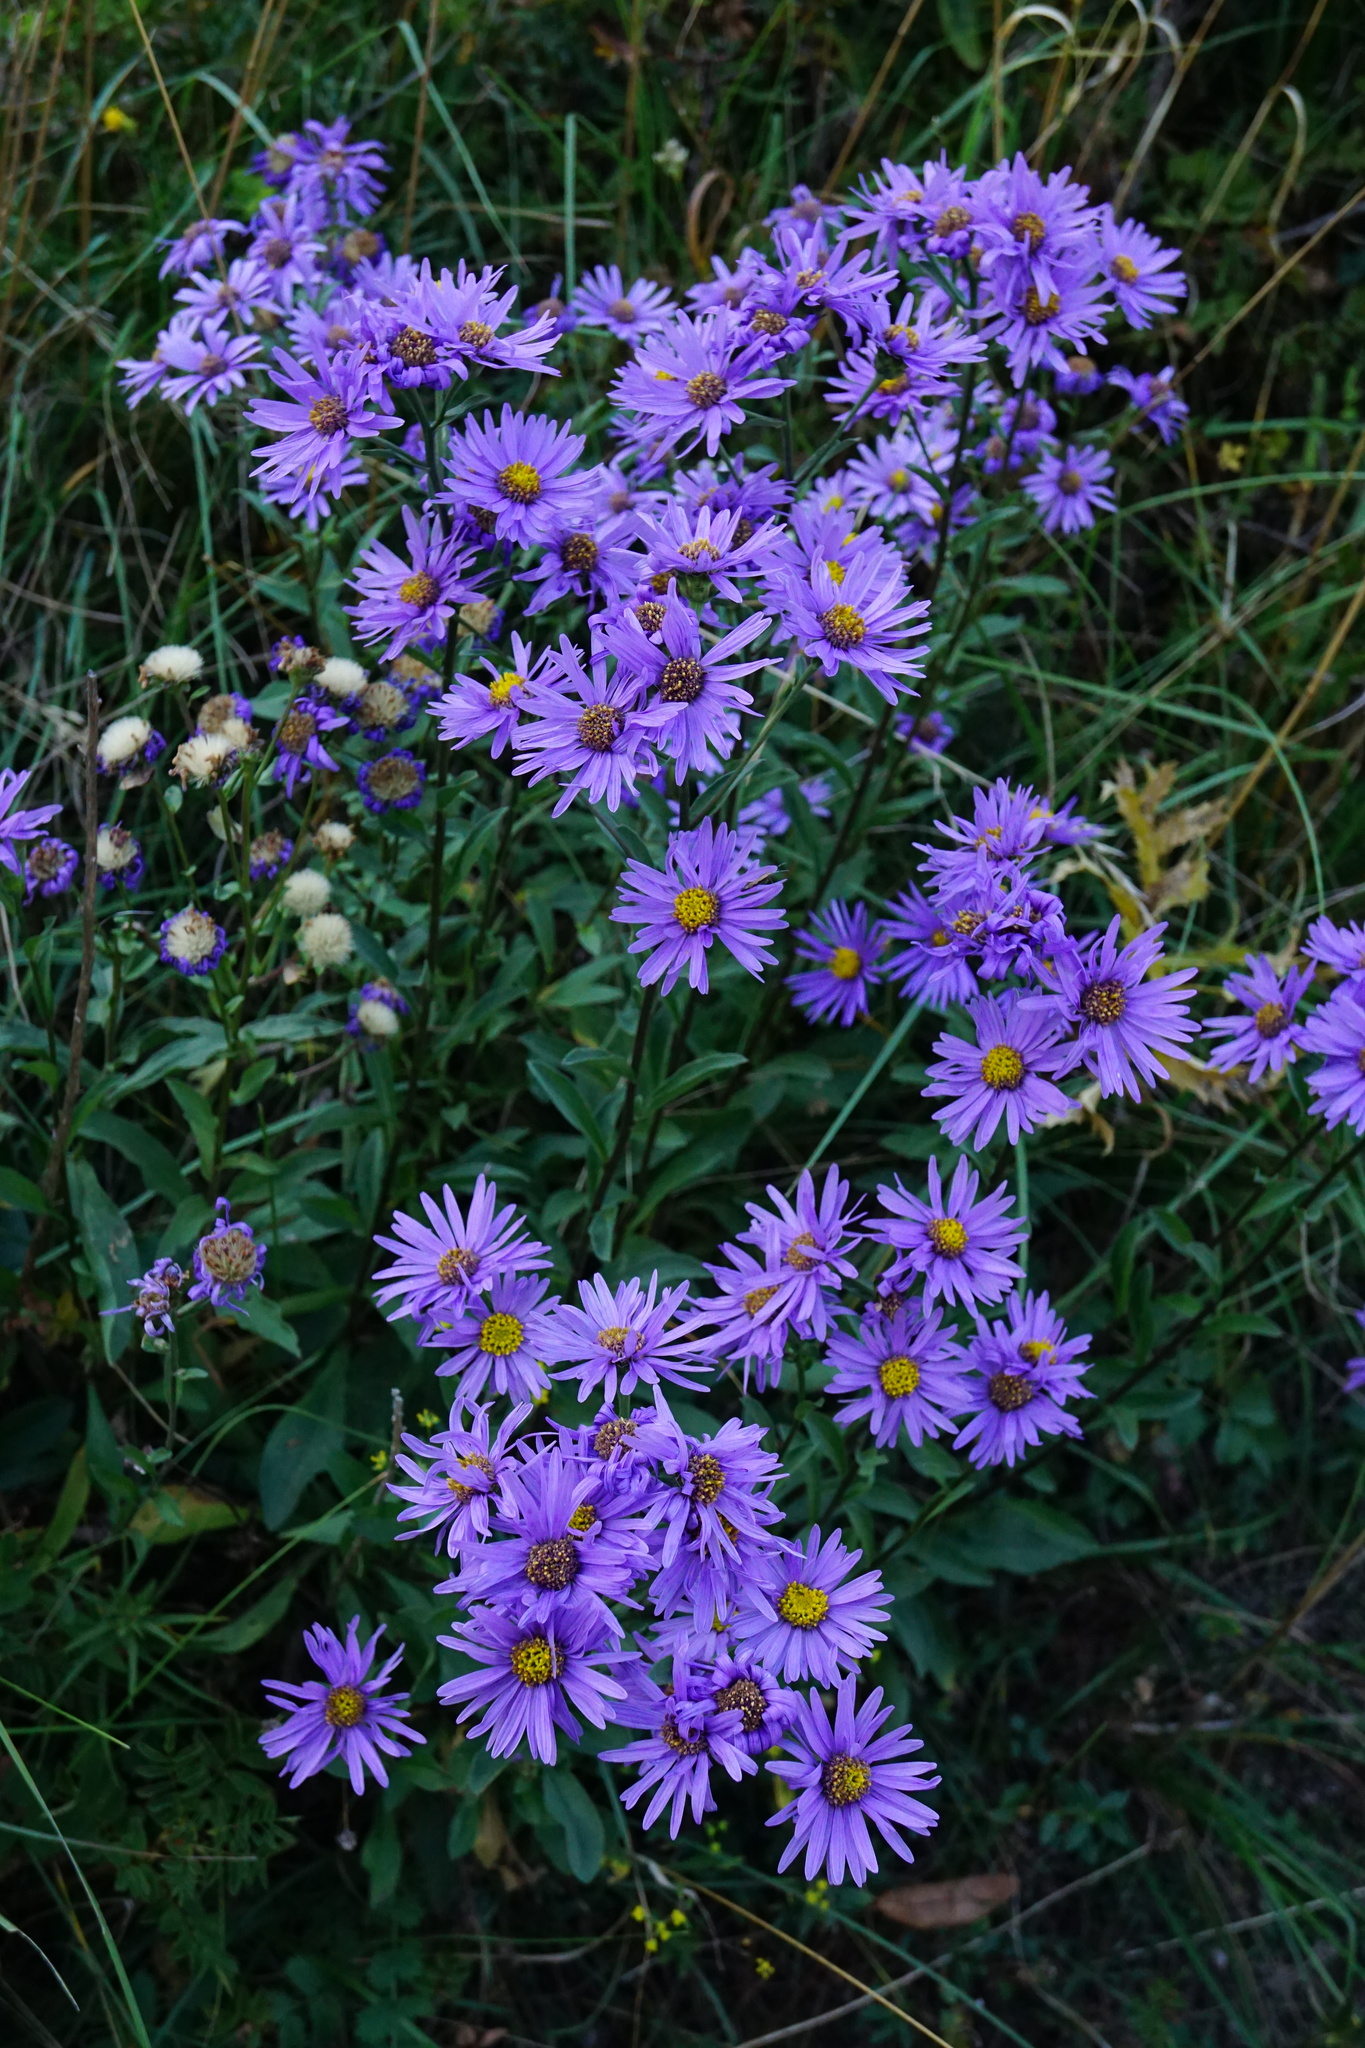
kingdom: Plantae
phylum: Tracheophyta
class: Magnoliopsida
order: Asterales
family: Asteraceae
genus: Aster
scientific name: Aster amellus
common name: European michaelmas daisy
